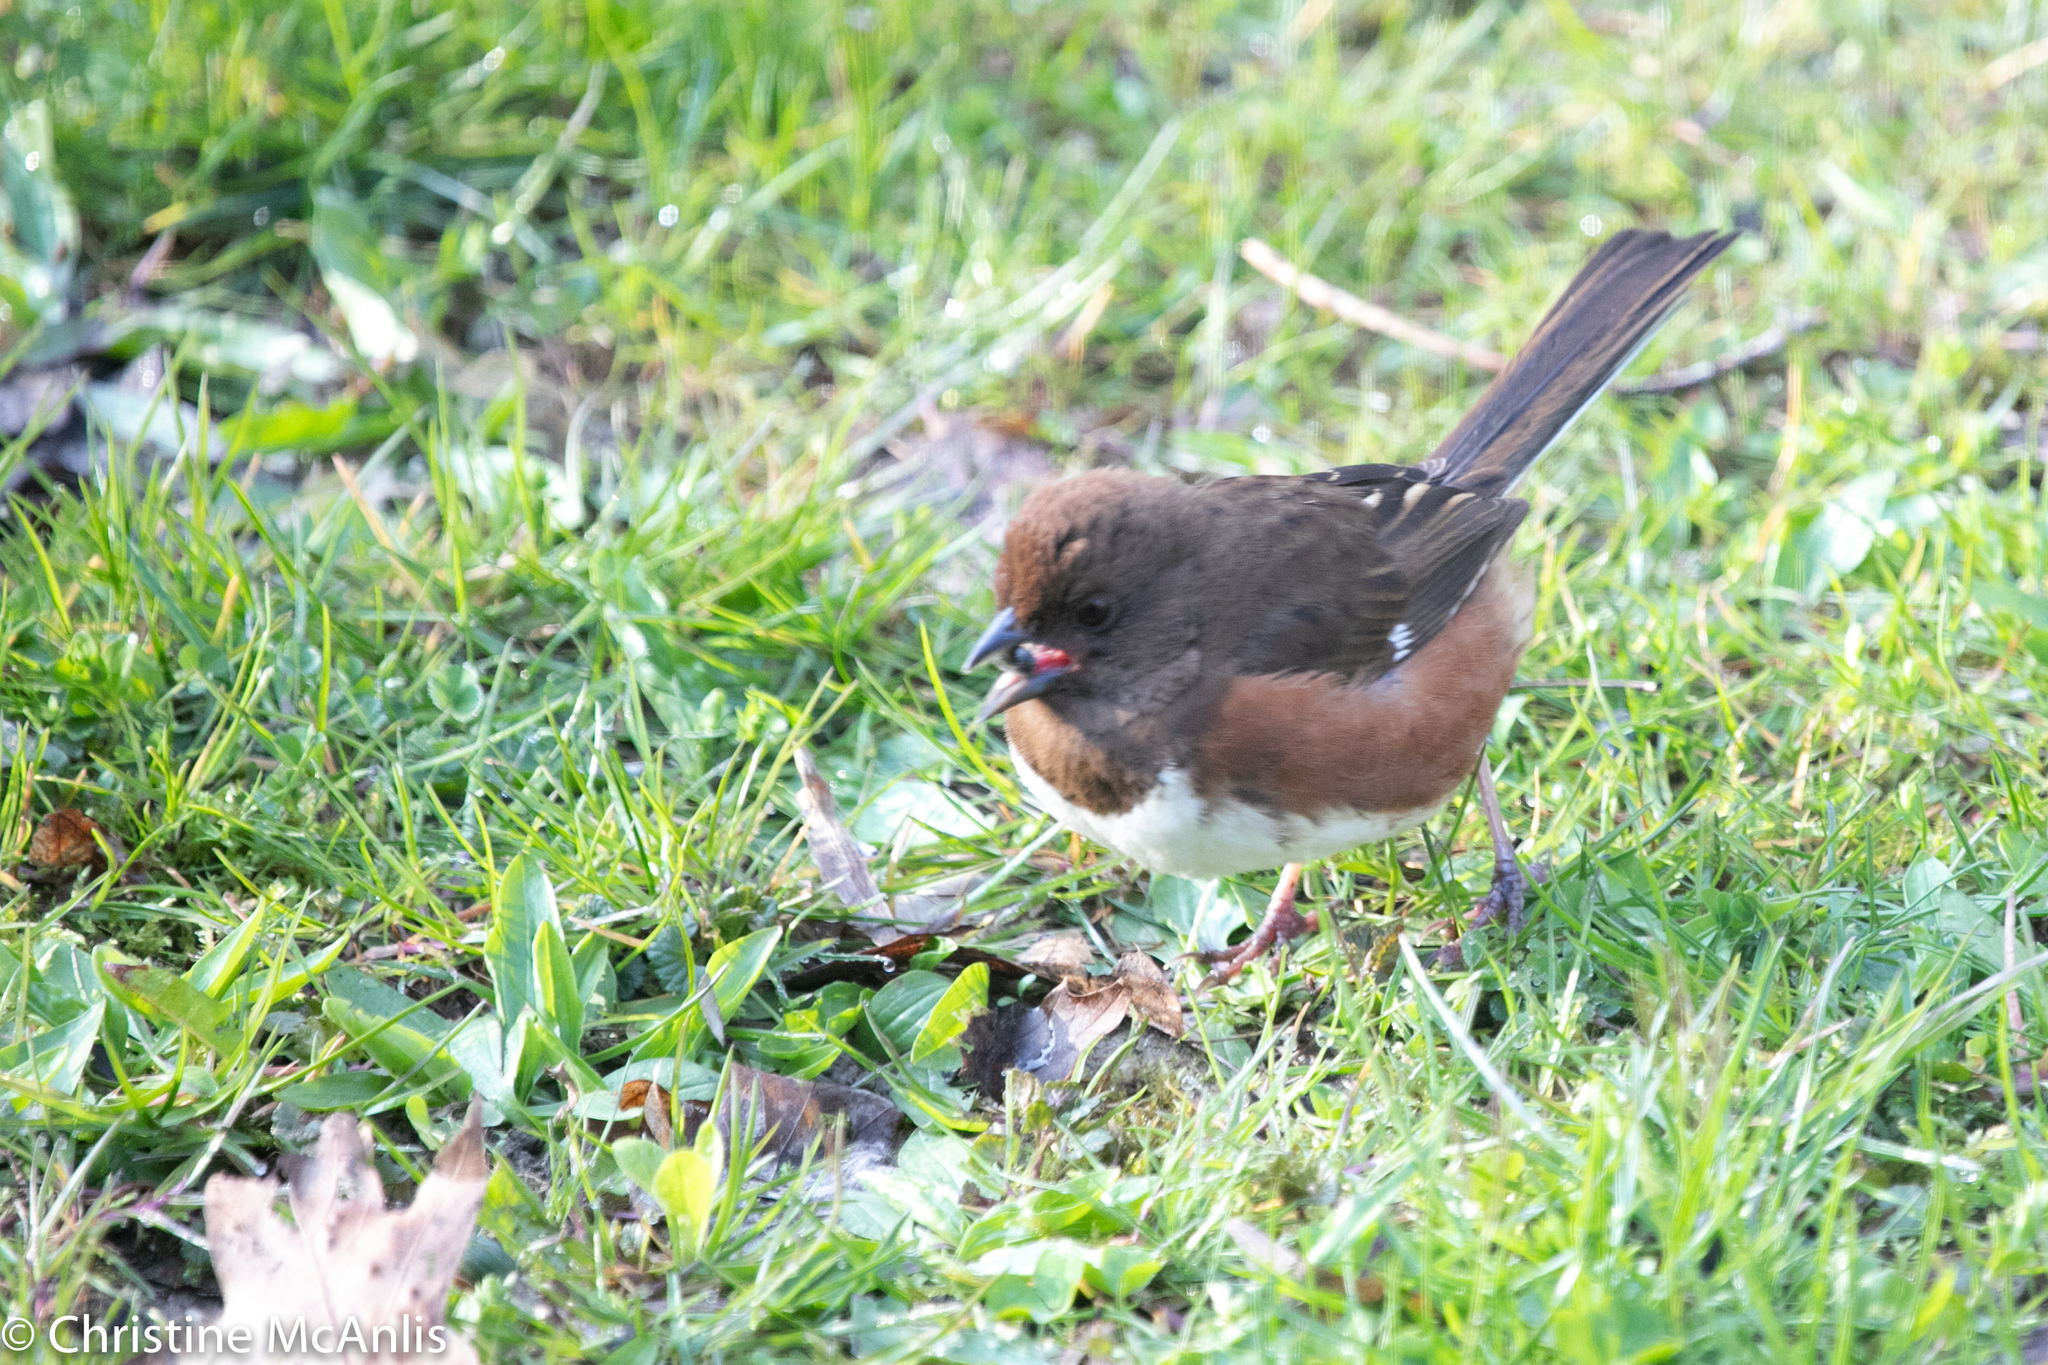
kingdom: Animalia
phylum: Chordata
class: Aves
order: Passeriformes
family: Passerellidae
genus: Pipilo
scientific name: Pipilo erythrophthalmus
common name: Eastern towhee
